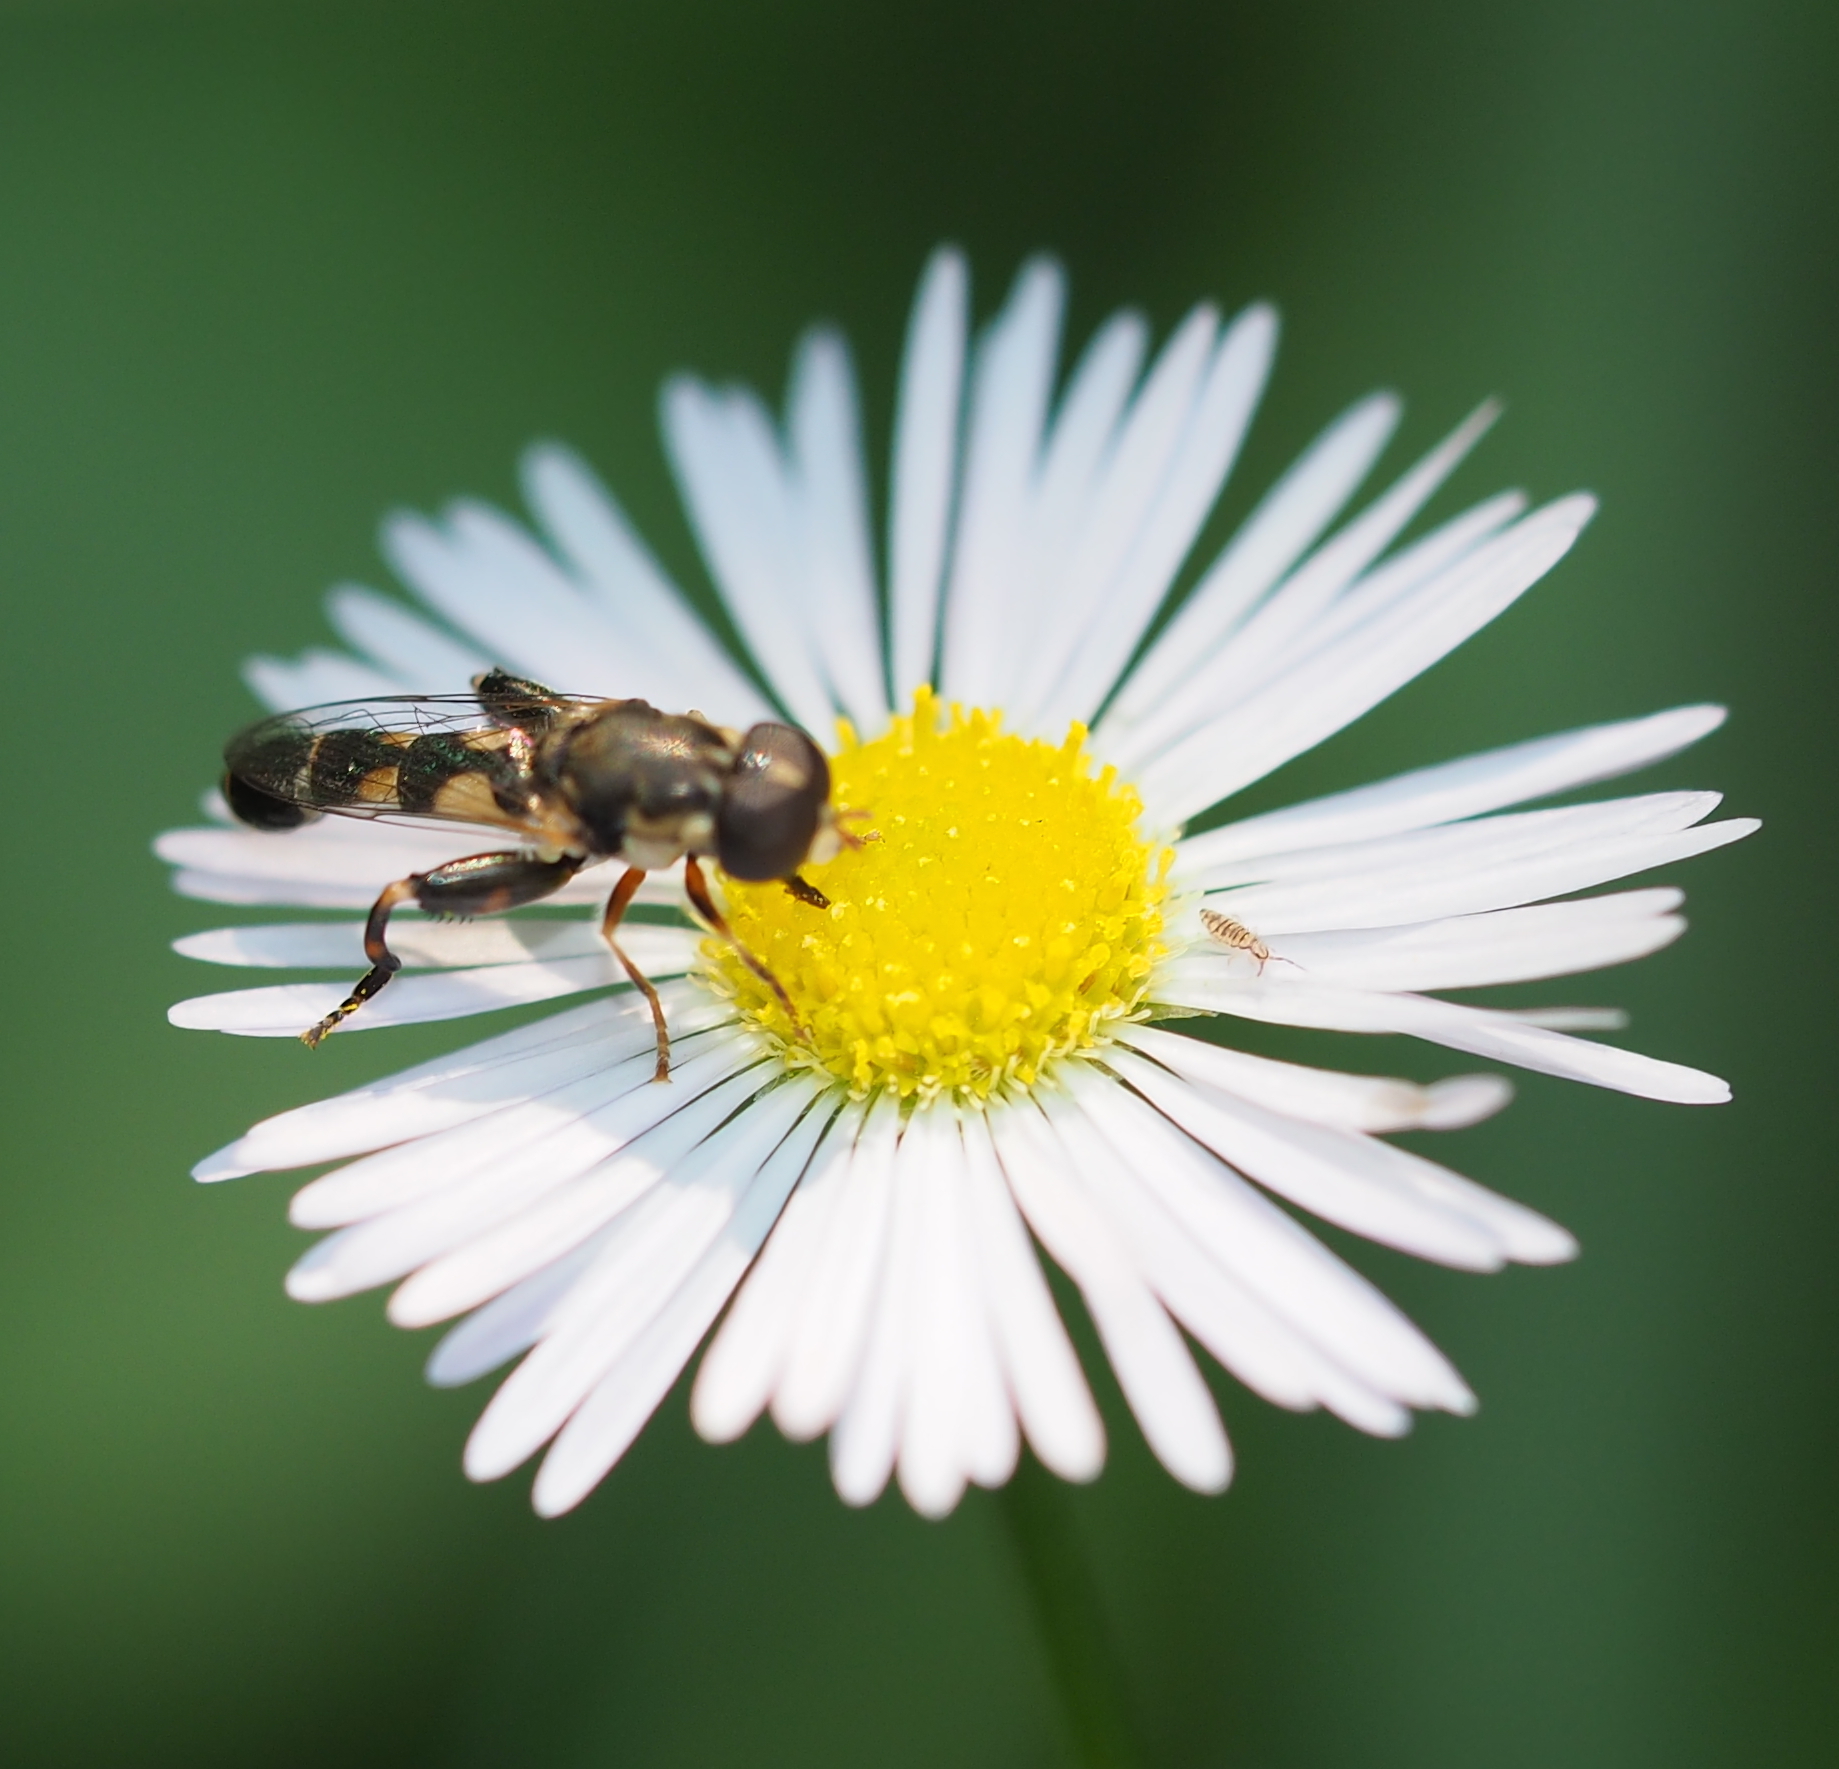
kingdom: Animalia
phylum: Arthropoda
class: Collembola
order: Entomobryomorpha
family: Entomobryidae
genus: Entomobrya
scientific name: Entomobrya multifasciata
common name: Springtail
